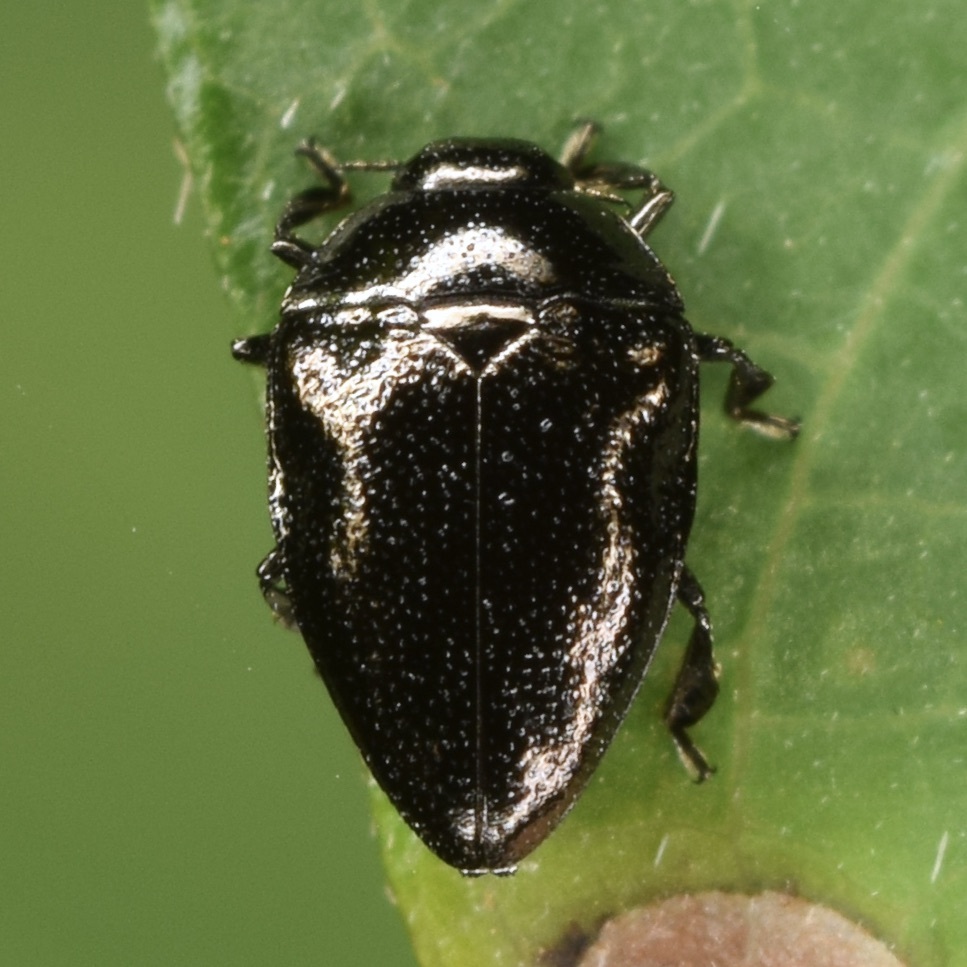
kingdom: Animalia
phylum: Arthropoda
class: Insecta
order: Coleoptera
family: Buprestidae
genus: Pachyschelus
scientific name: Pachyschelus laevigatus
